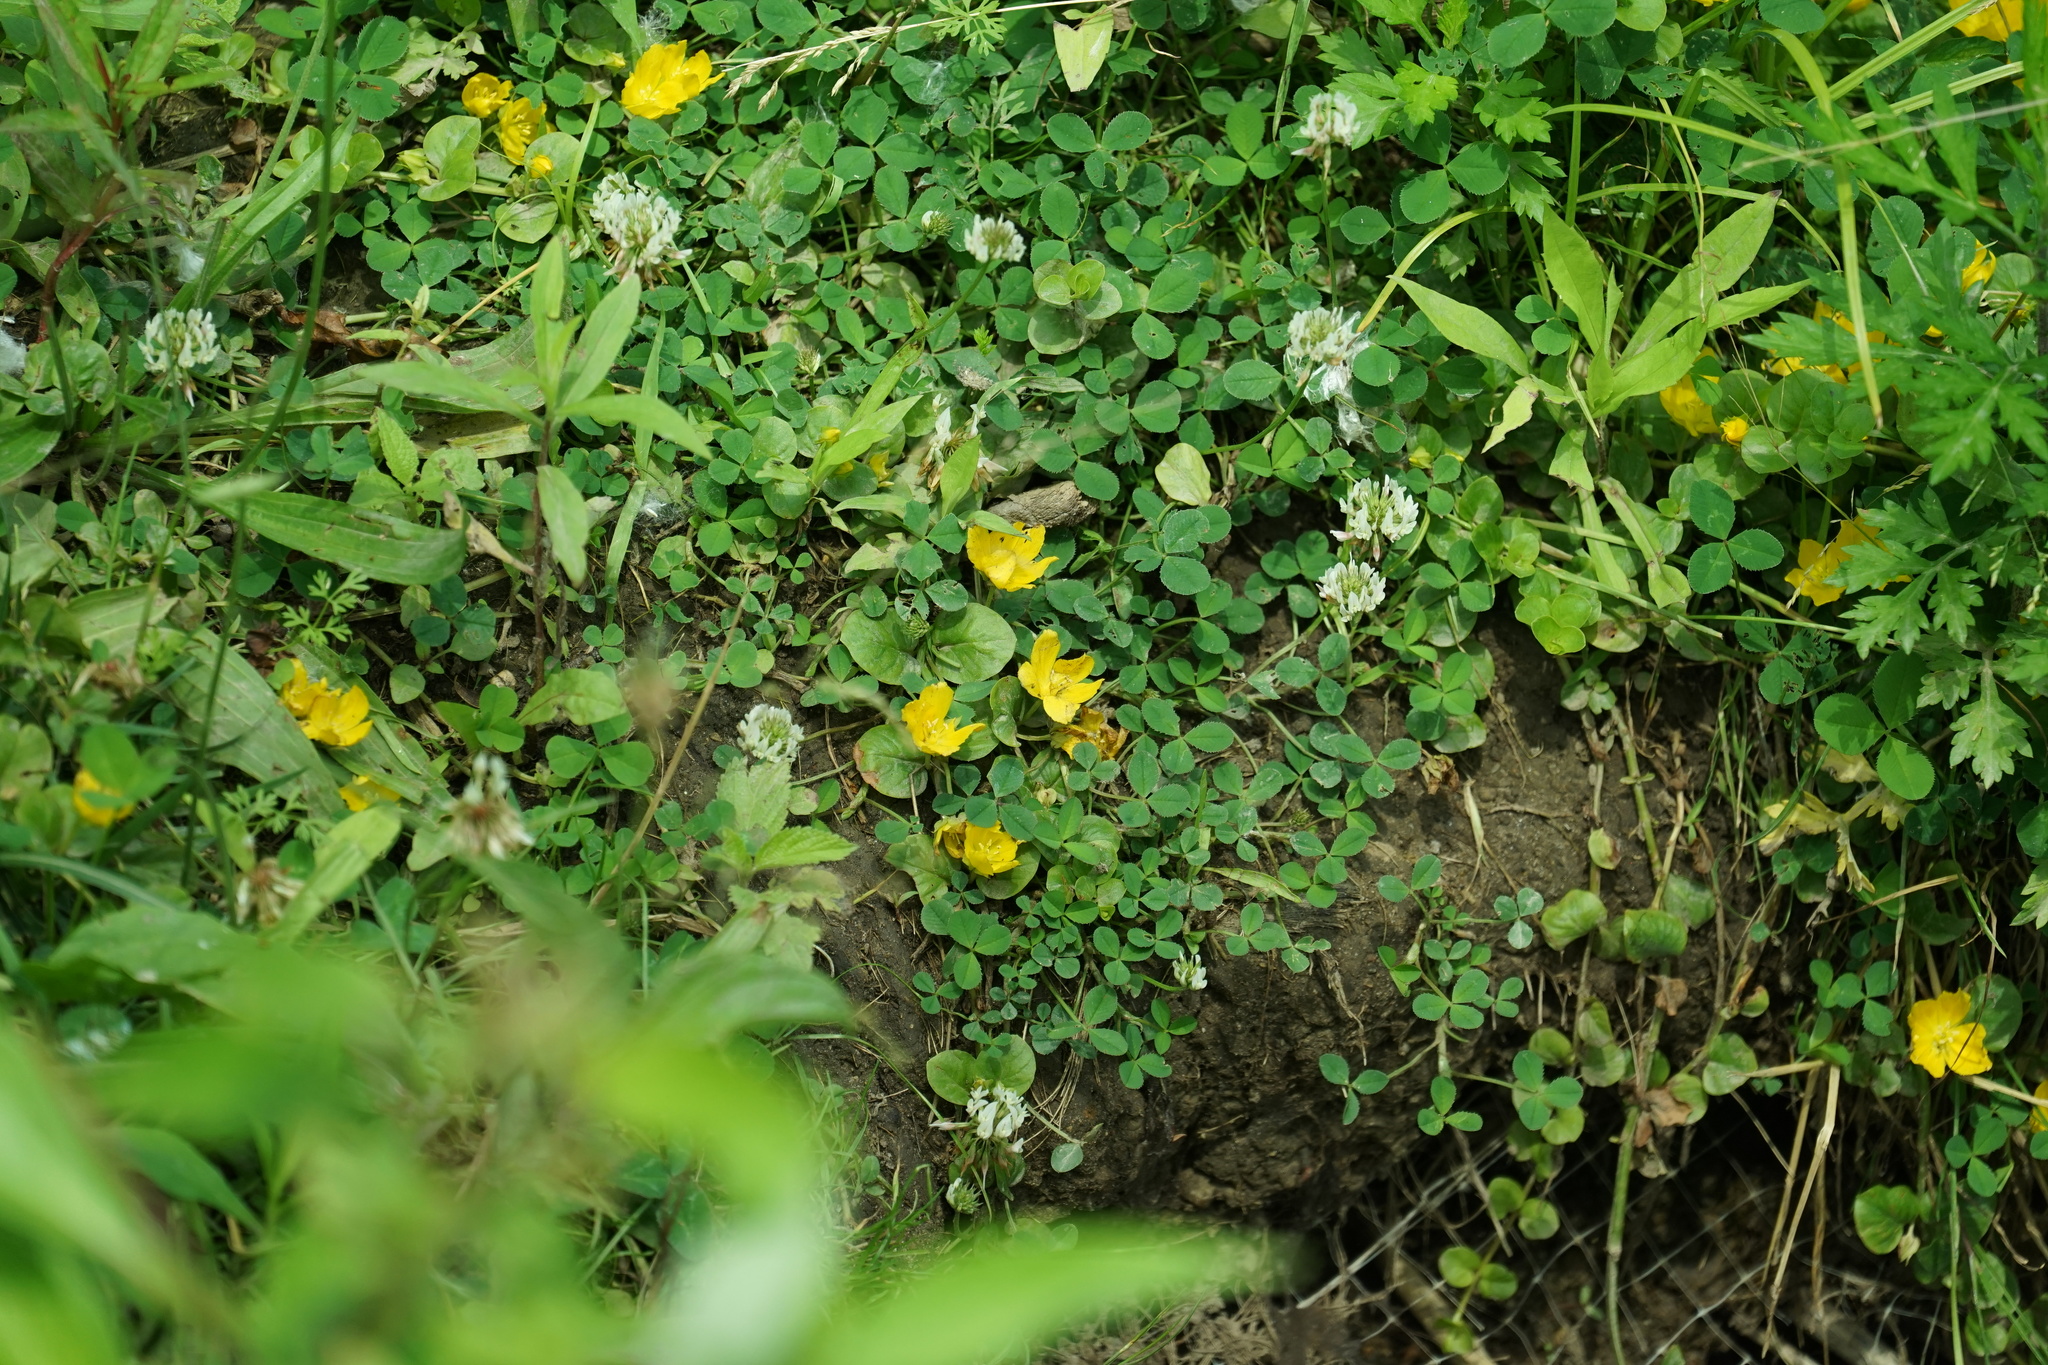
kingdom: Plantae
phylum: Tracheophyta
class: Magnoliopsida
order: Ericales
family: Primulaceae
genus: Lysimachia
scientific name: Lysimachia nummularia
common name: Moneywort
